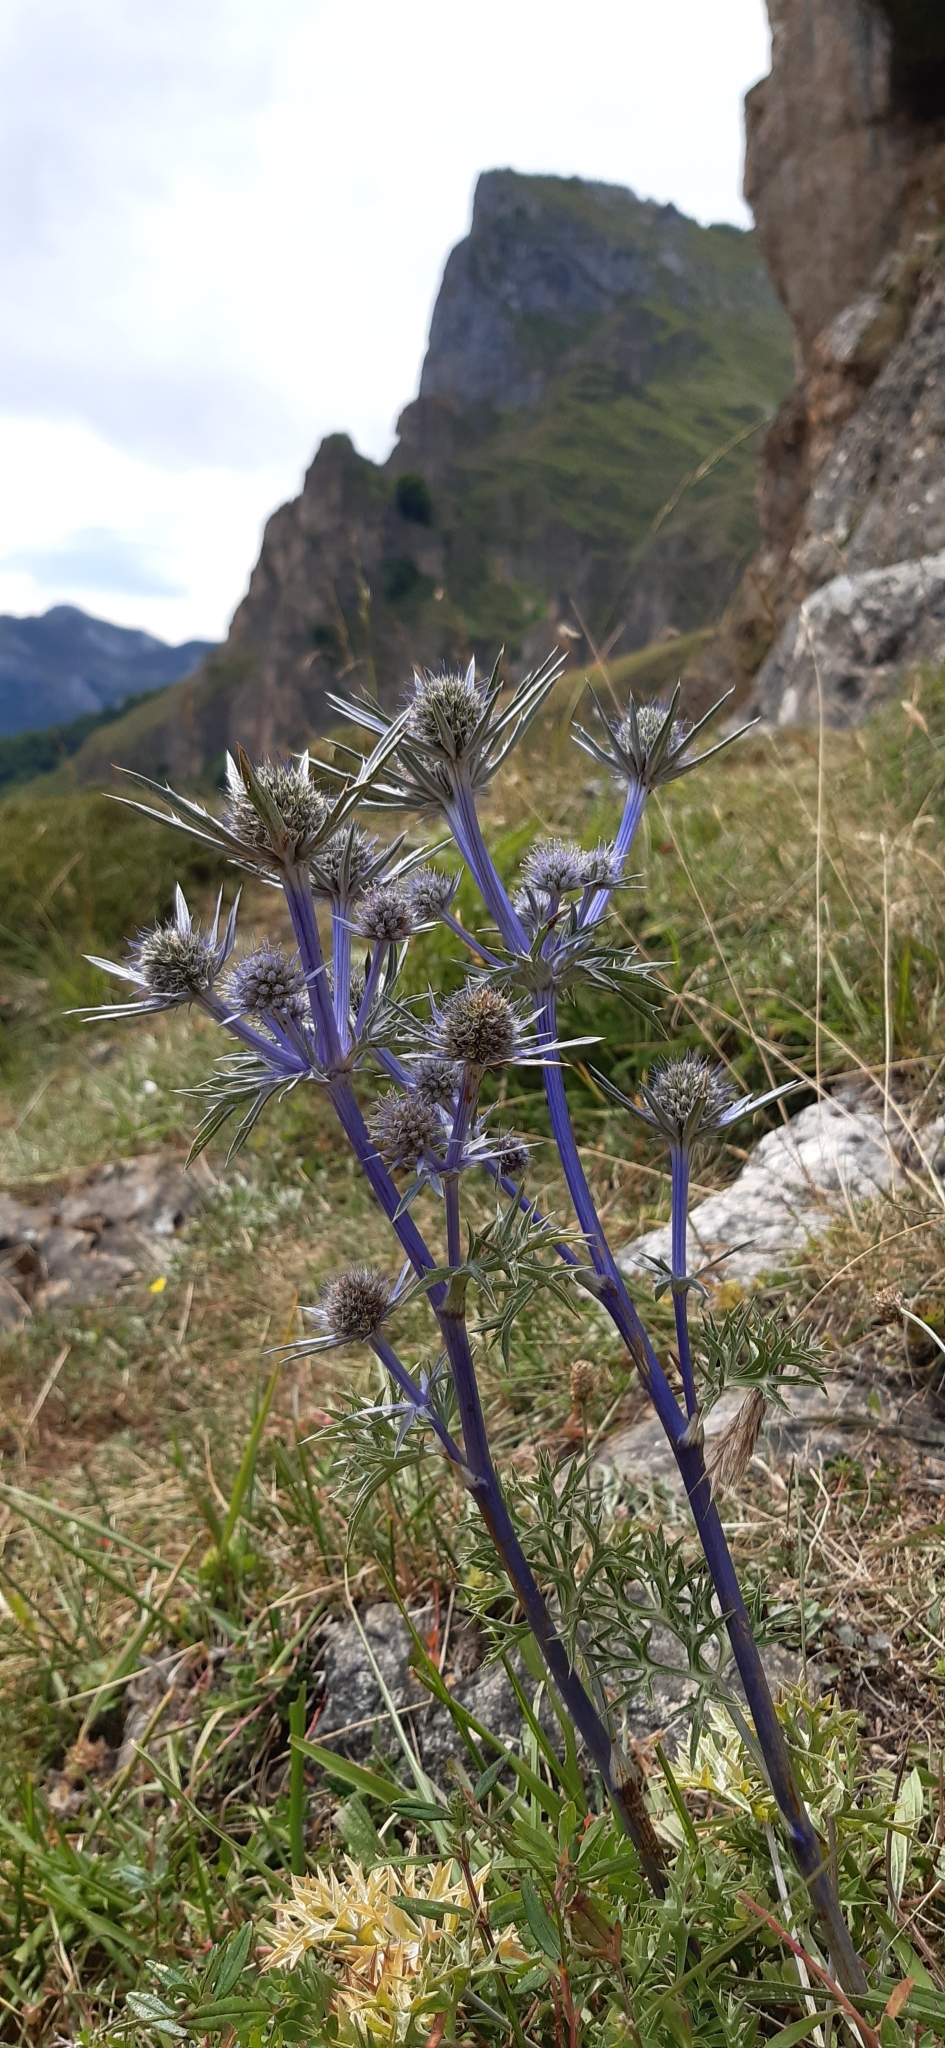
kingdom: Plantae
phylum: Tracheophyta
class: Magnoliopsida
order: Apiales
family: Apiaceae
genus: Eryngium
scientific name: Eryngium bourgatii
